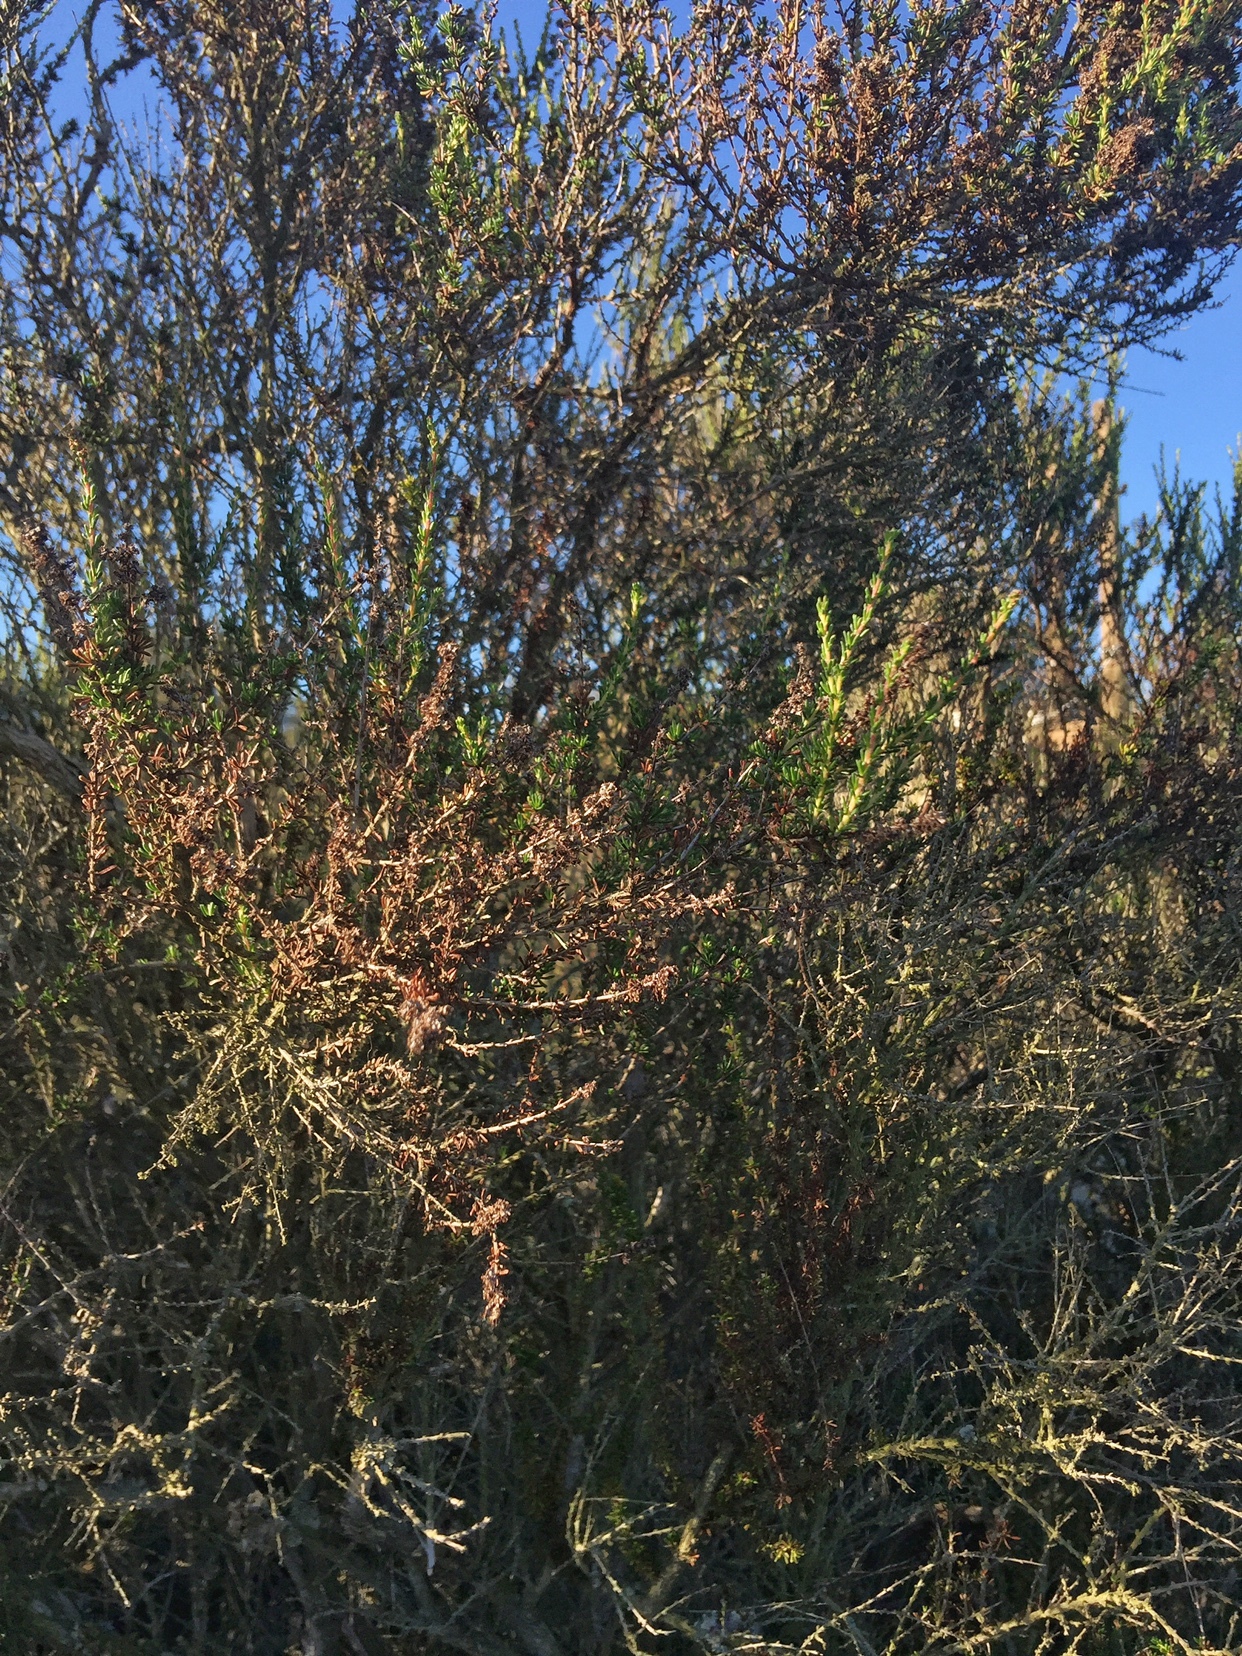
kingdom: Plantae
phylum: Tracheophyta
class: Magnoliopsida
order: Rosales
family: Rosaceae
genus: Adenostoma
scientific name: Adenostoma fasciculatum
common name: Chamise
